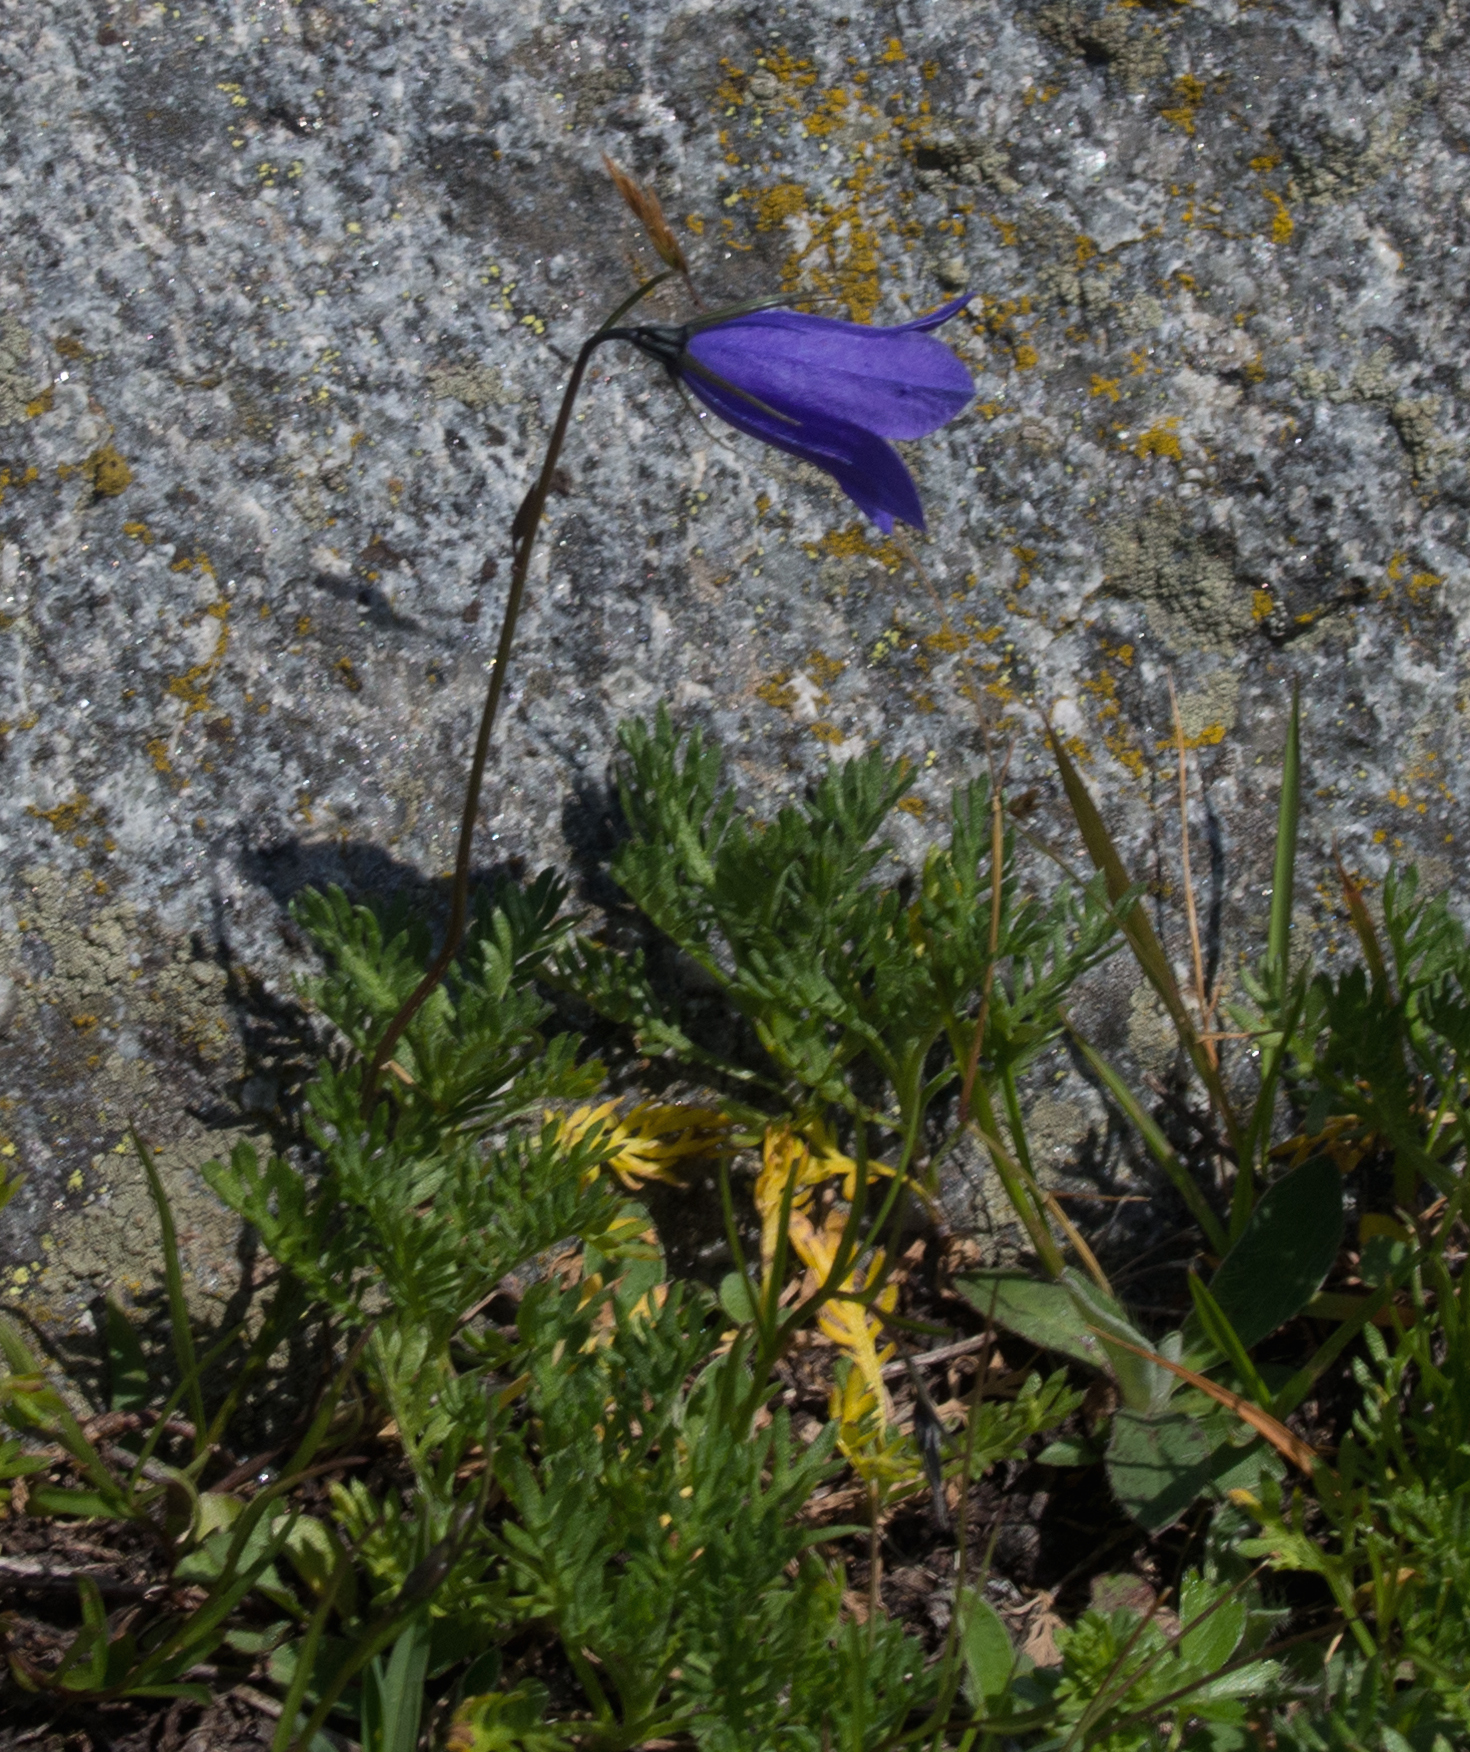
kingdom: Plantae
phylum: Tracheophyta
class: Magnoliopsida
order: Asterales
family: Campanulaceae
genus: Campanula
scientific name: Campanula scheuchzeri
